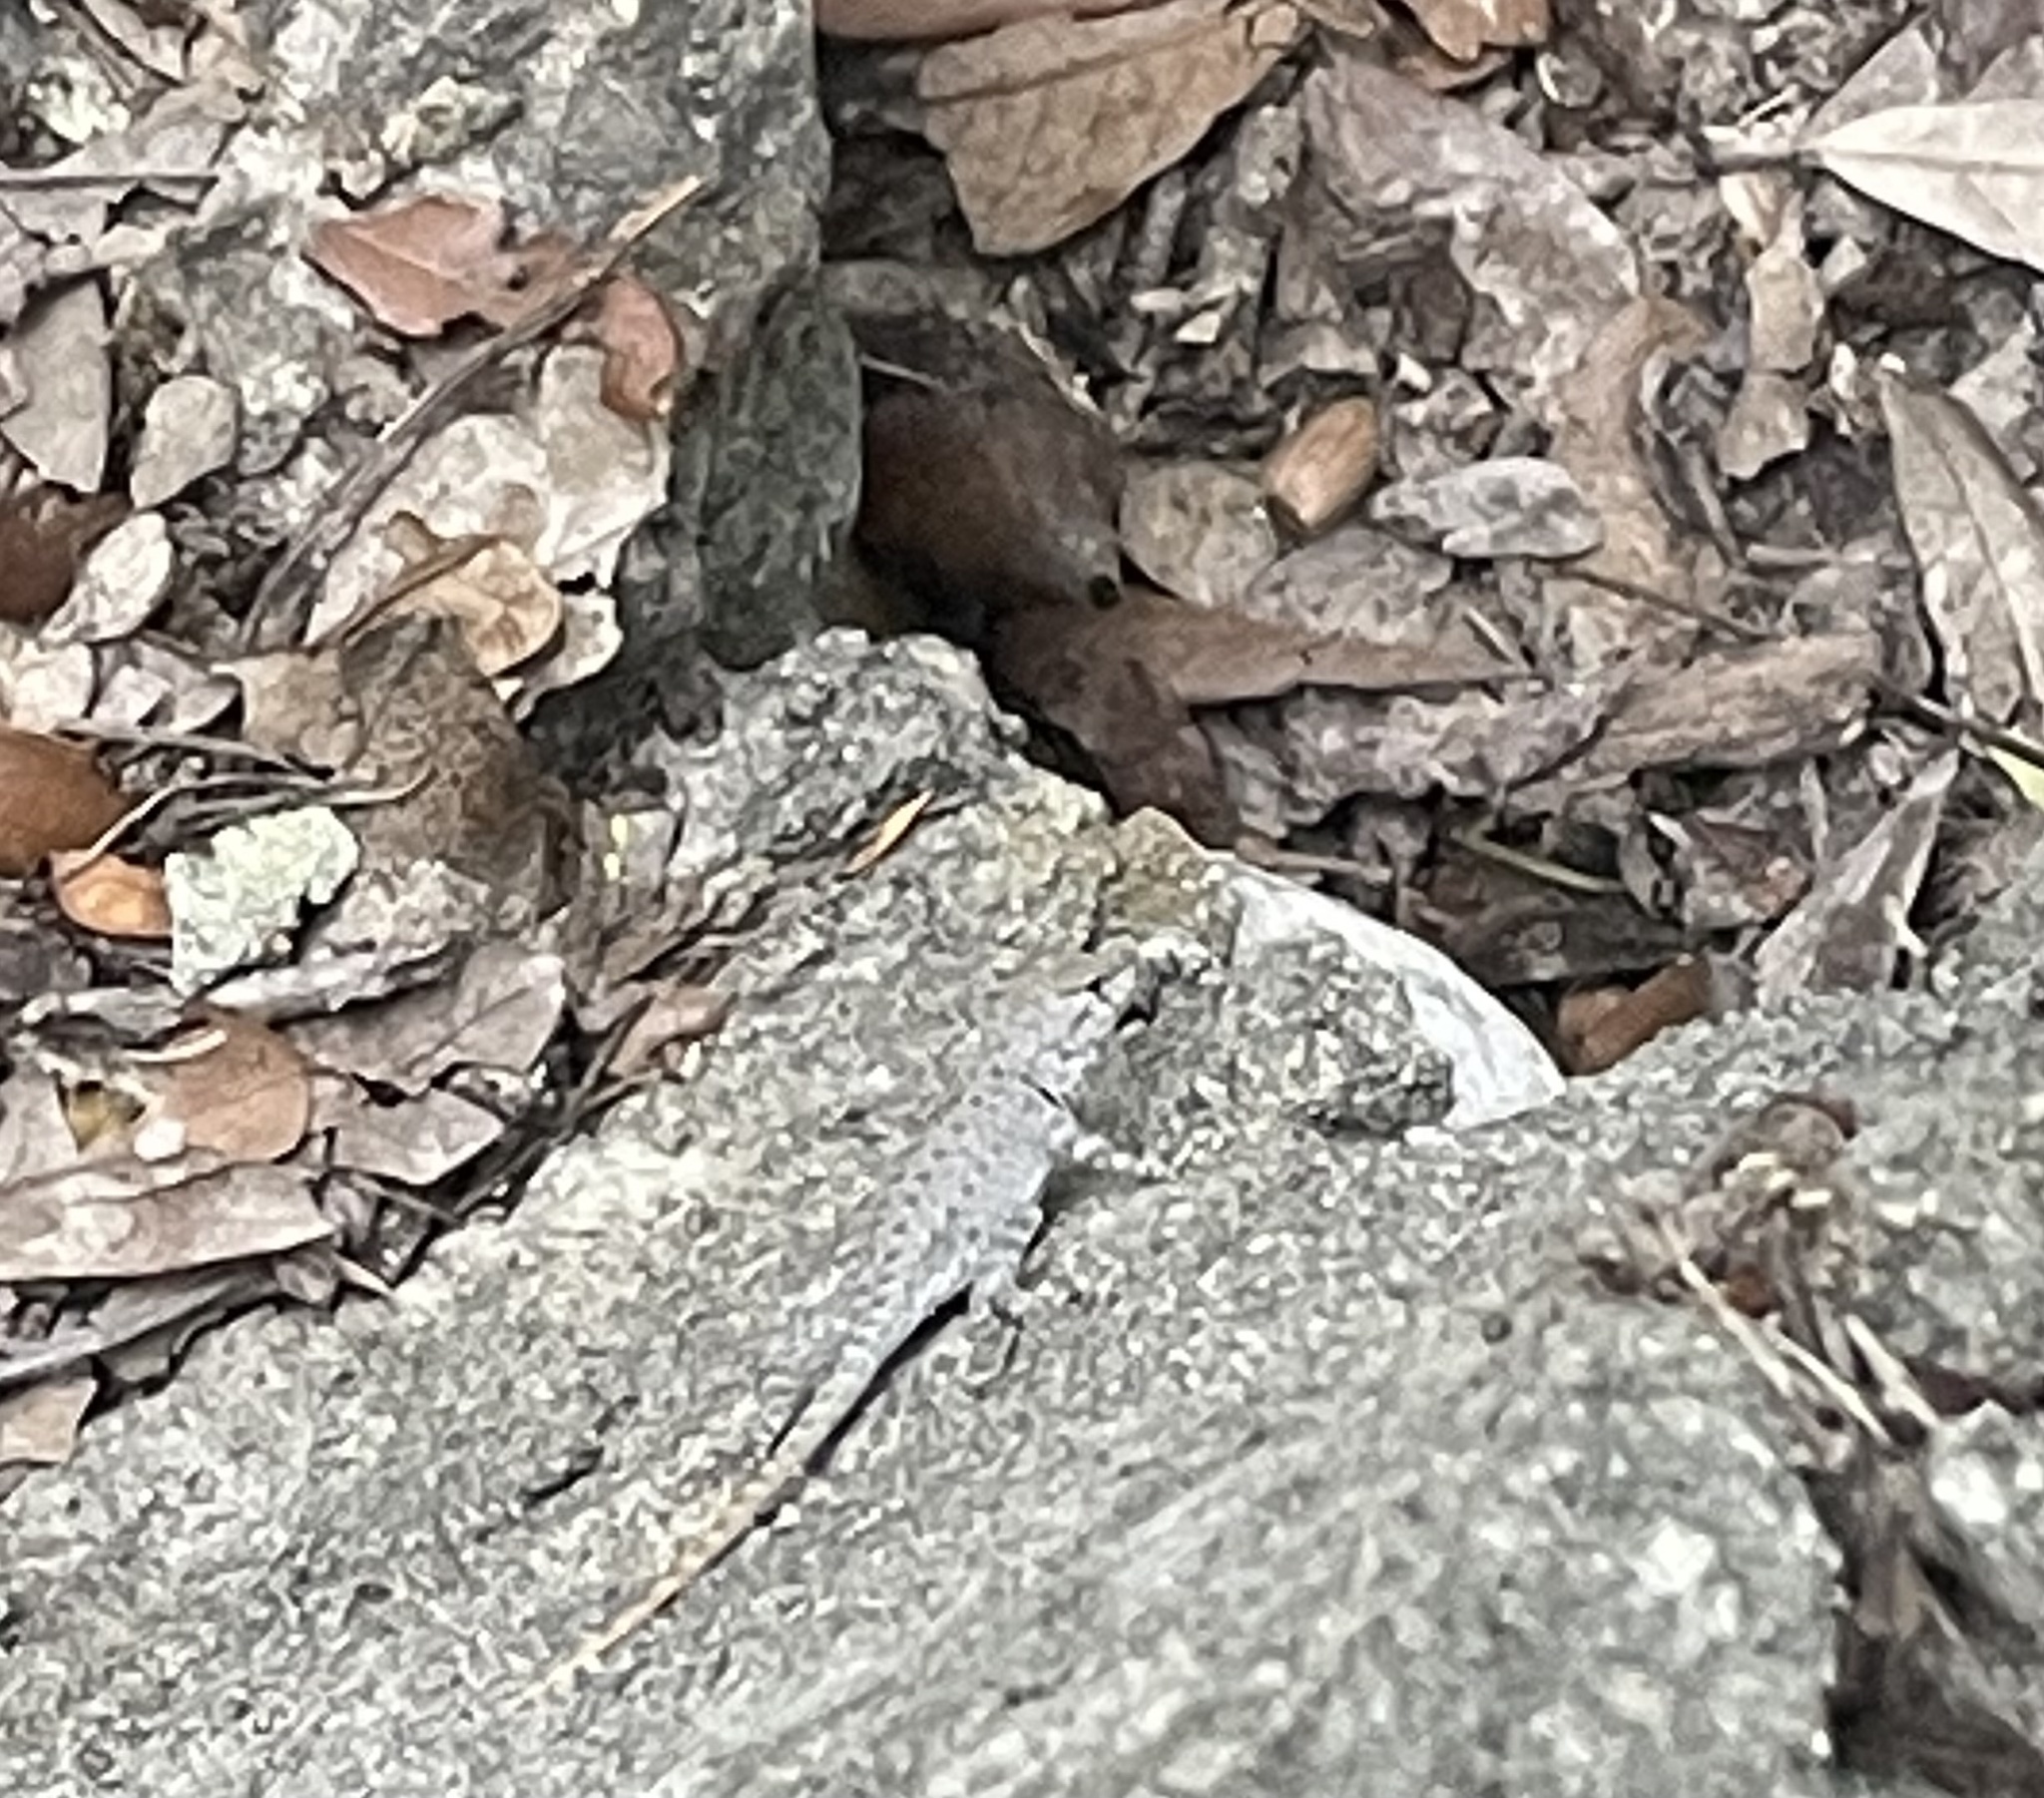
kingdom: Animalia
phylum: Chordata
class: Squamata
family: Phrynosomatidae
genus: Sceloporus
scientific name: Sceloporus merriami
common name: Canyon lizard
